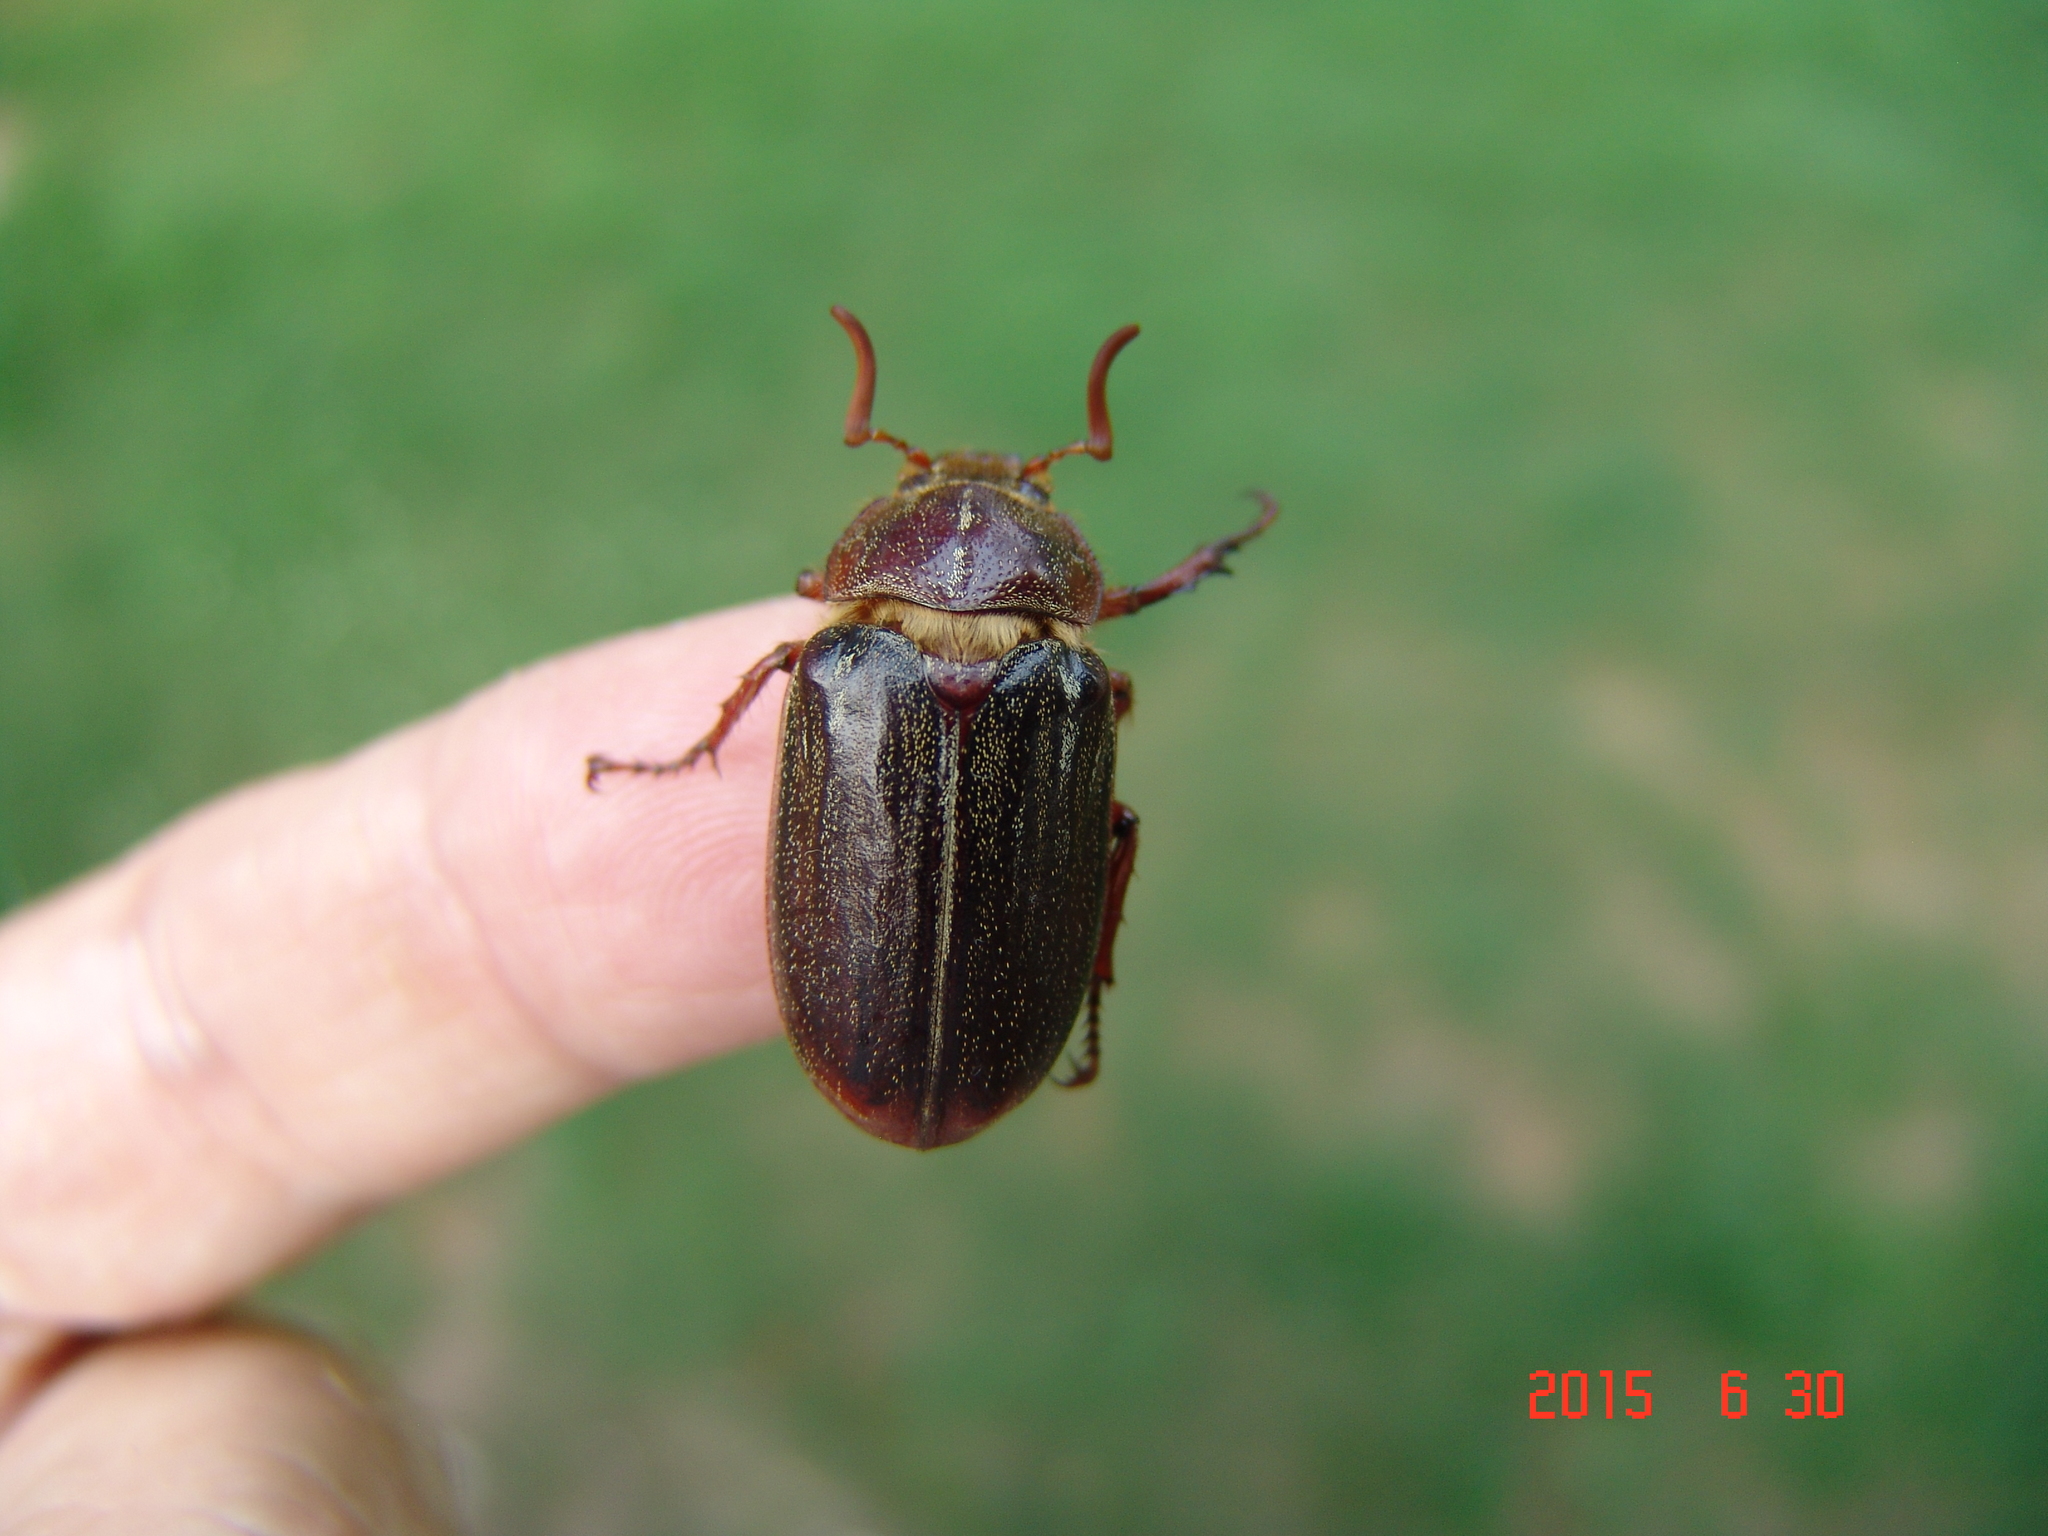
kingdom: Animalia
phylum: Arthropoda
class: Insecta
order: Coleoptera
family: Scarabaeidae
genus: Polyphylla
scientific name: Polyphylla hammondi
